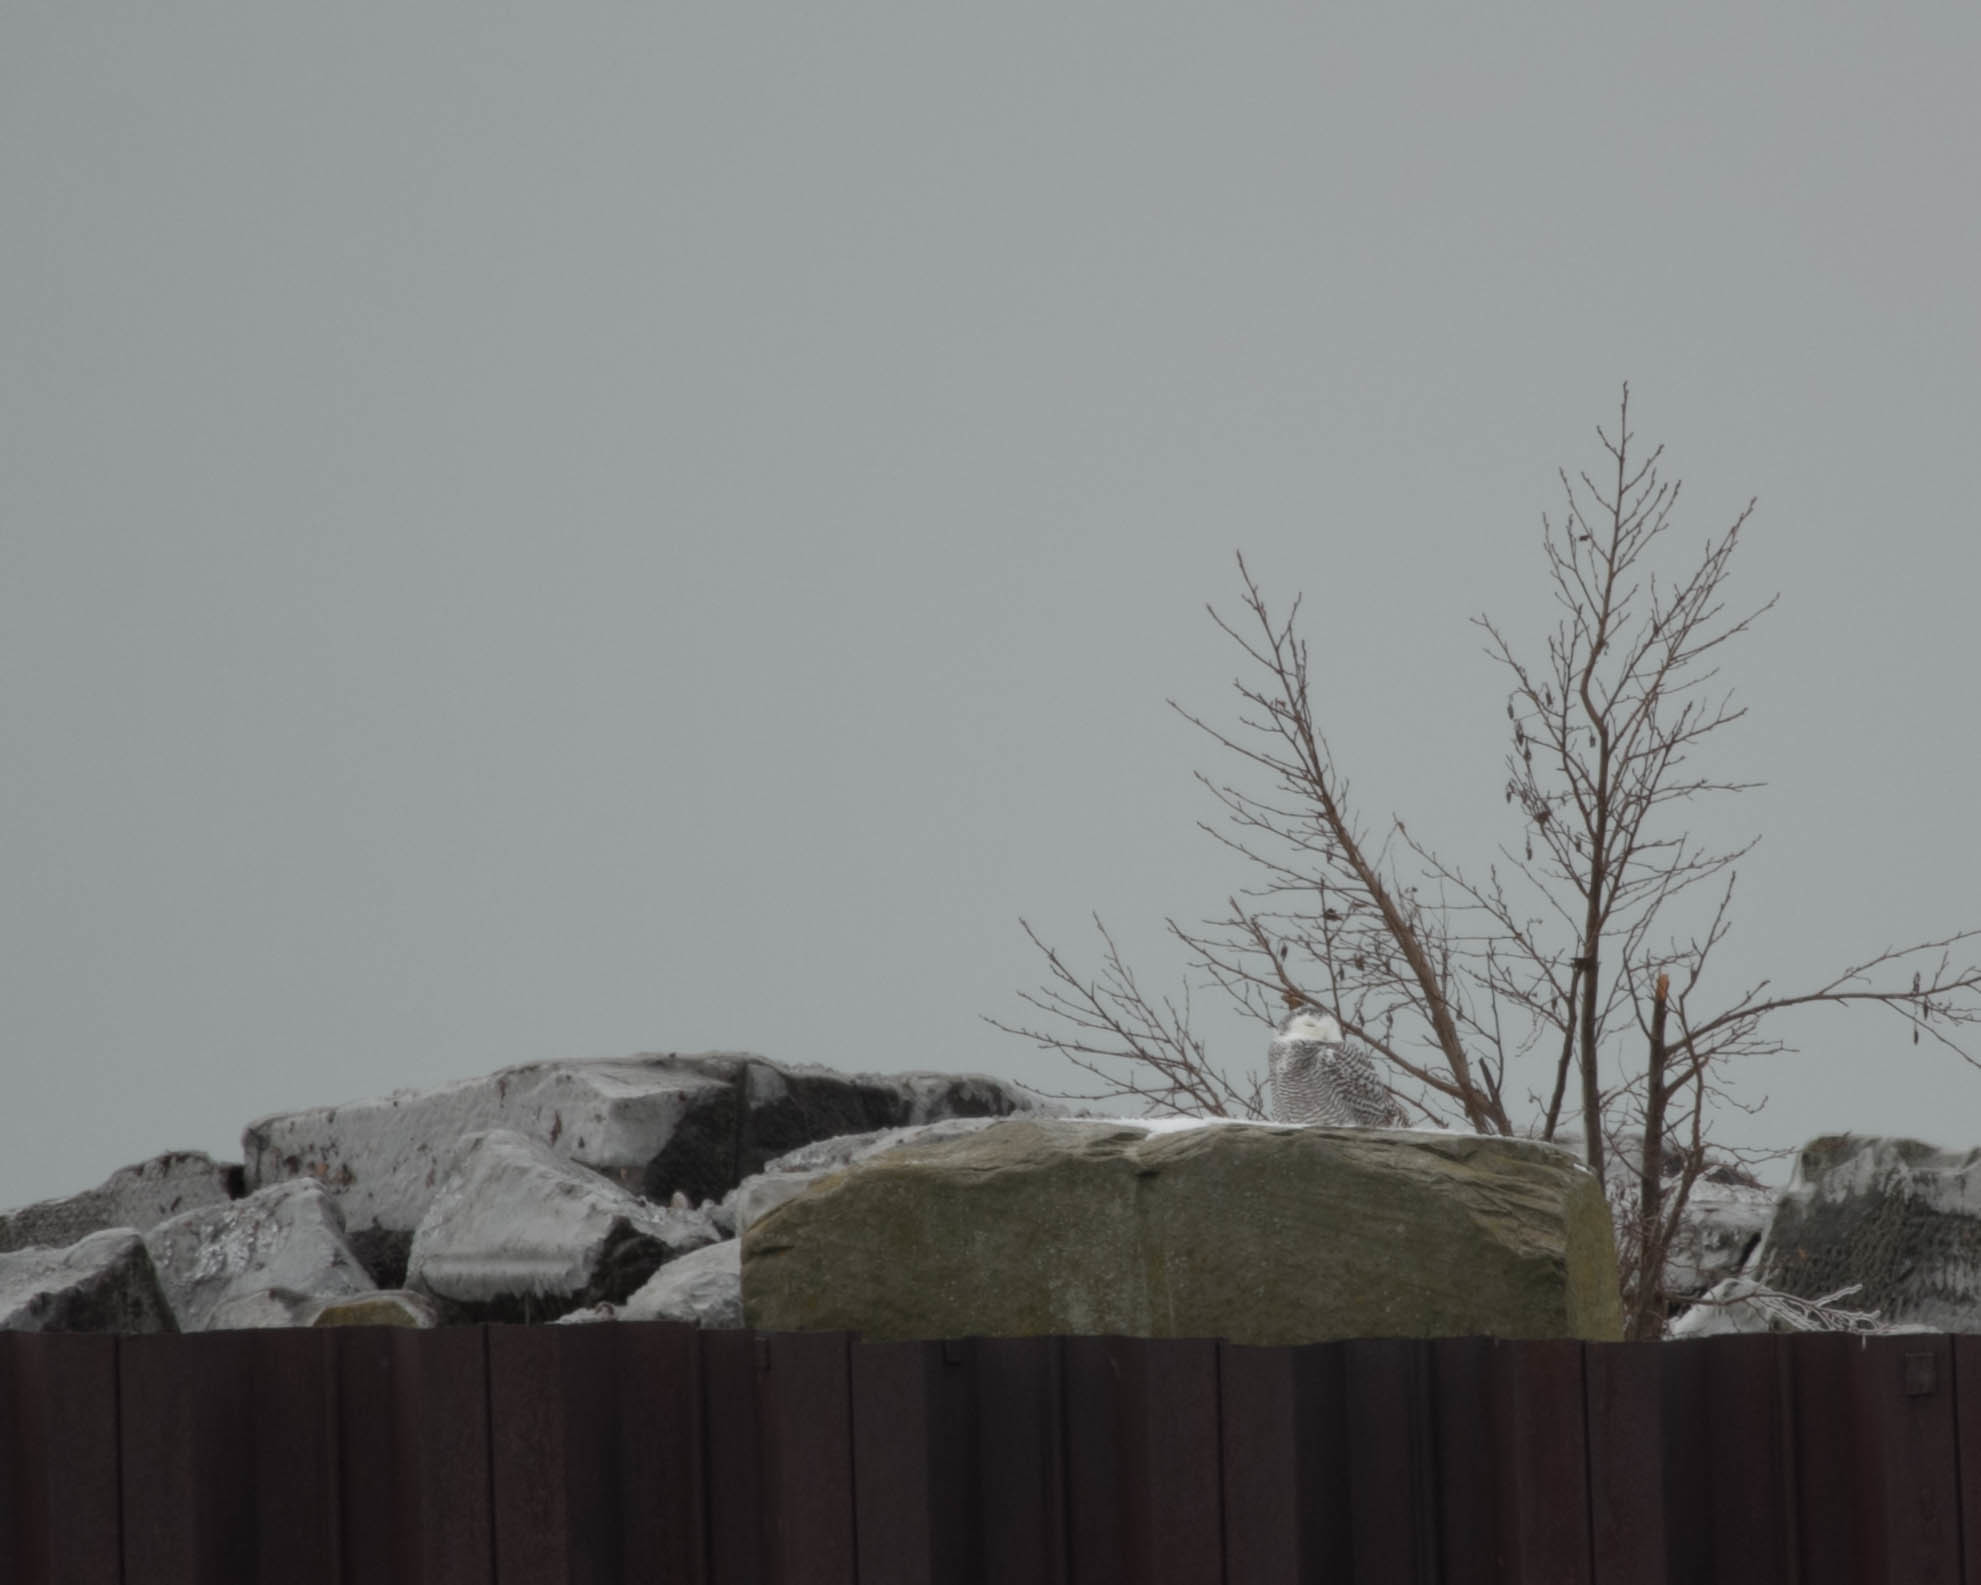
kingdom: Animalia
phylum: Chordata
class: Aves
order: Strigiformes
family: Strigidae
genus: Bubo
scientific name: Bubo scandiacus
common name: Snowy owl
